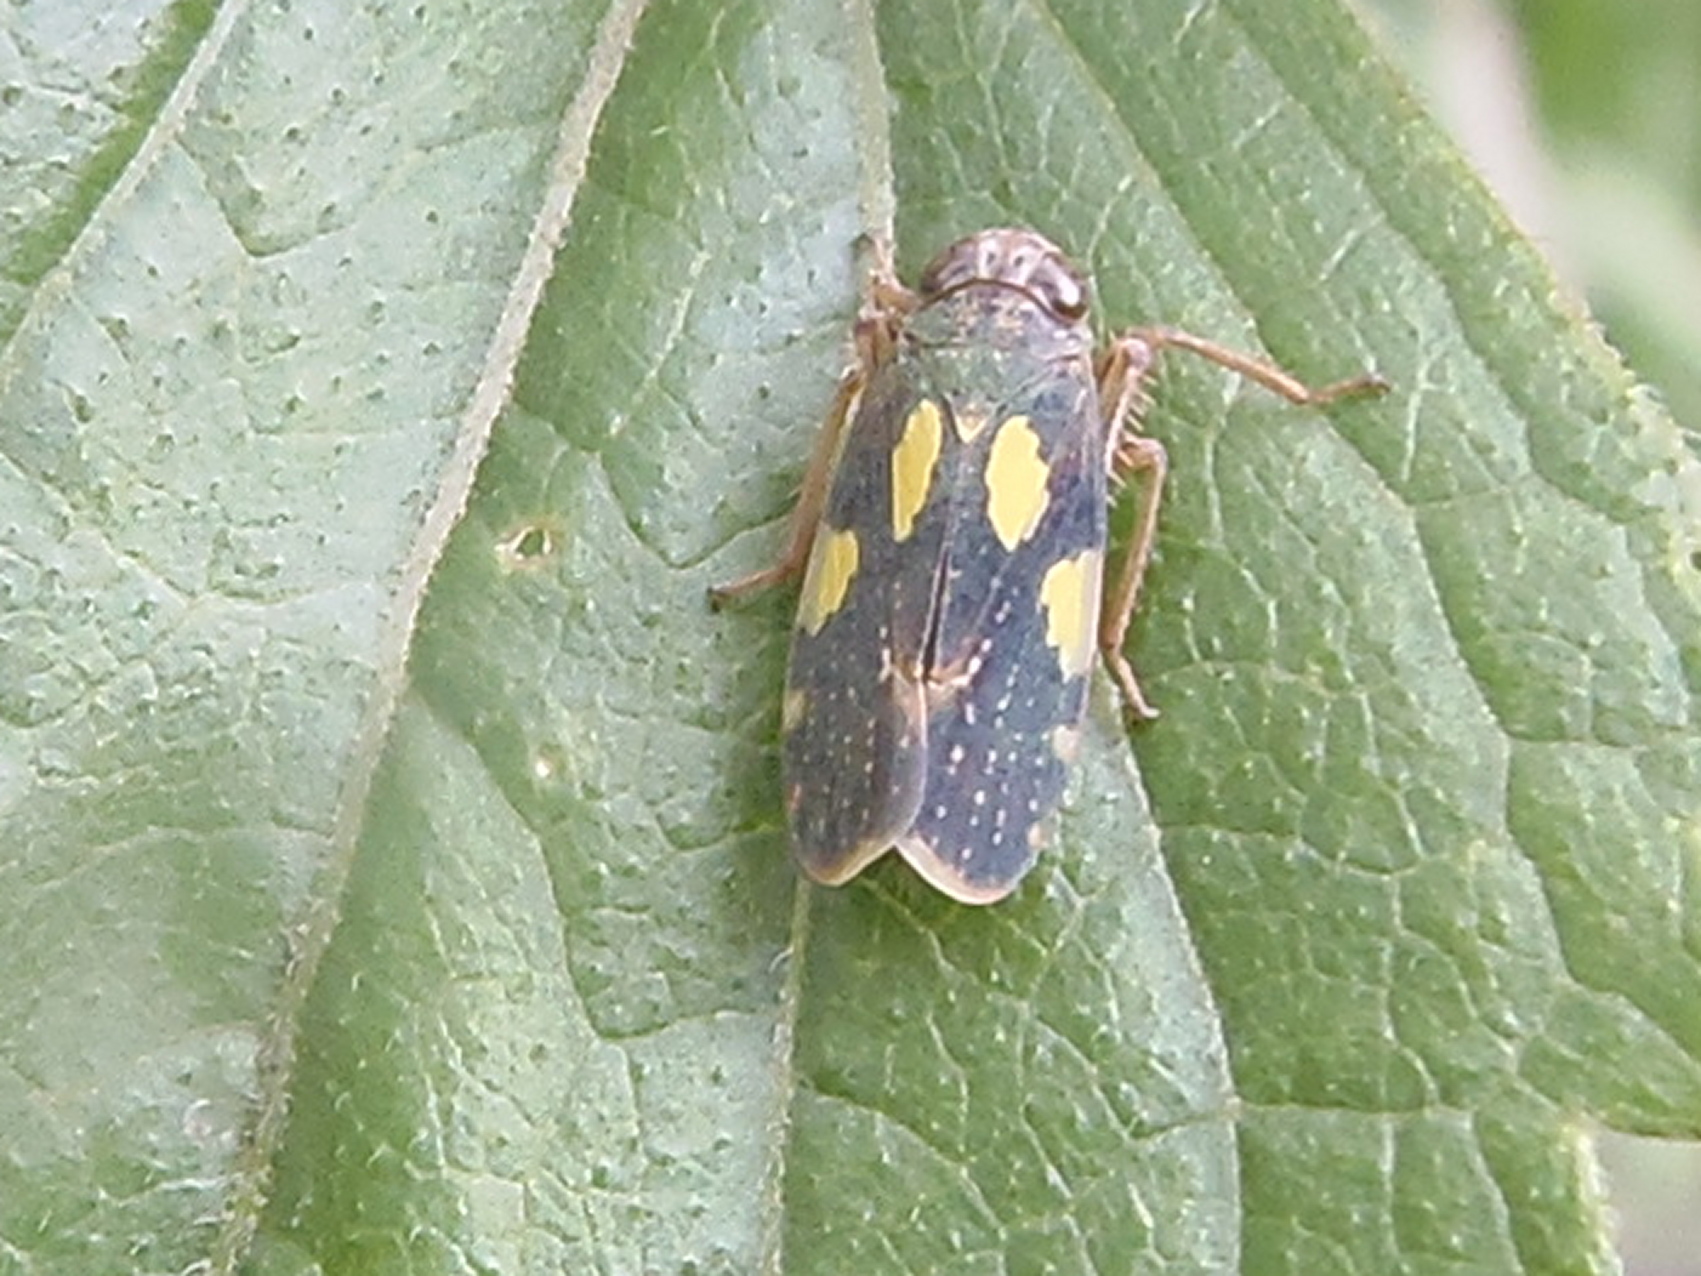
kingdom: Animalia
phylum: Arthropoda
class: Insecta
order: Hemiptera
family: Cicadellidae
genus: Omanolidia
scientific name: Omanolidia bistyla
